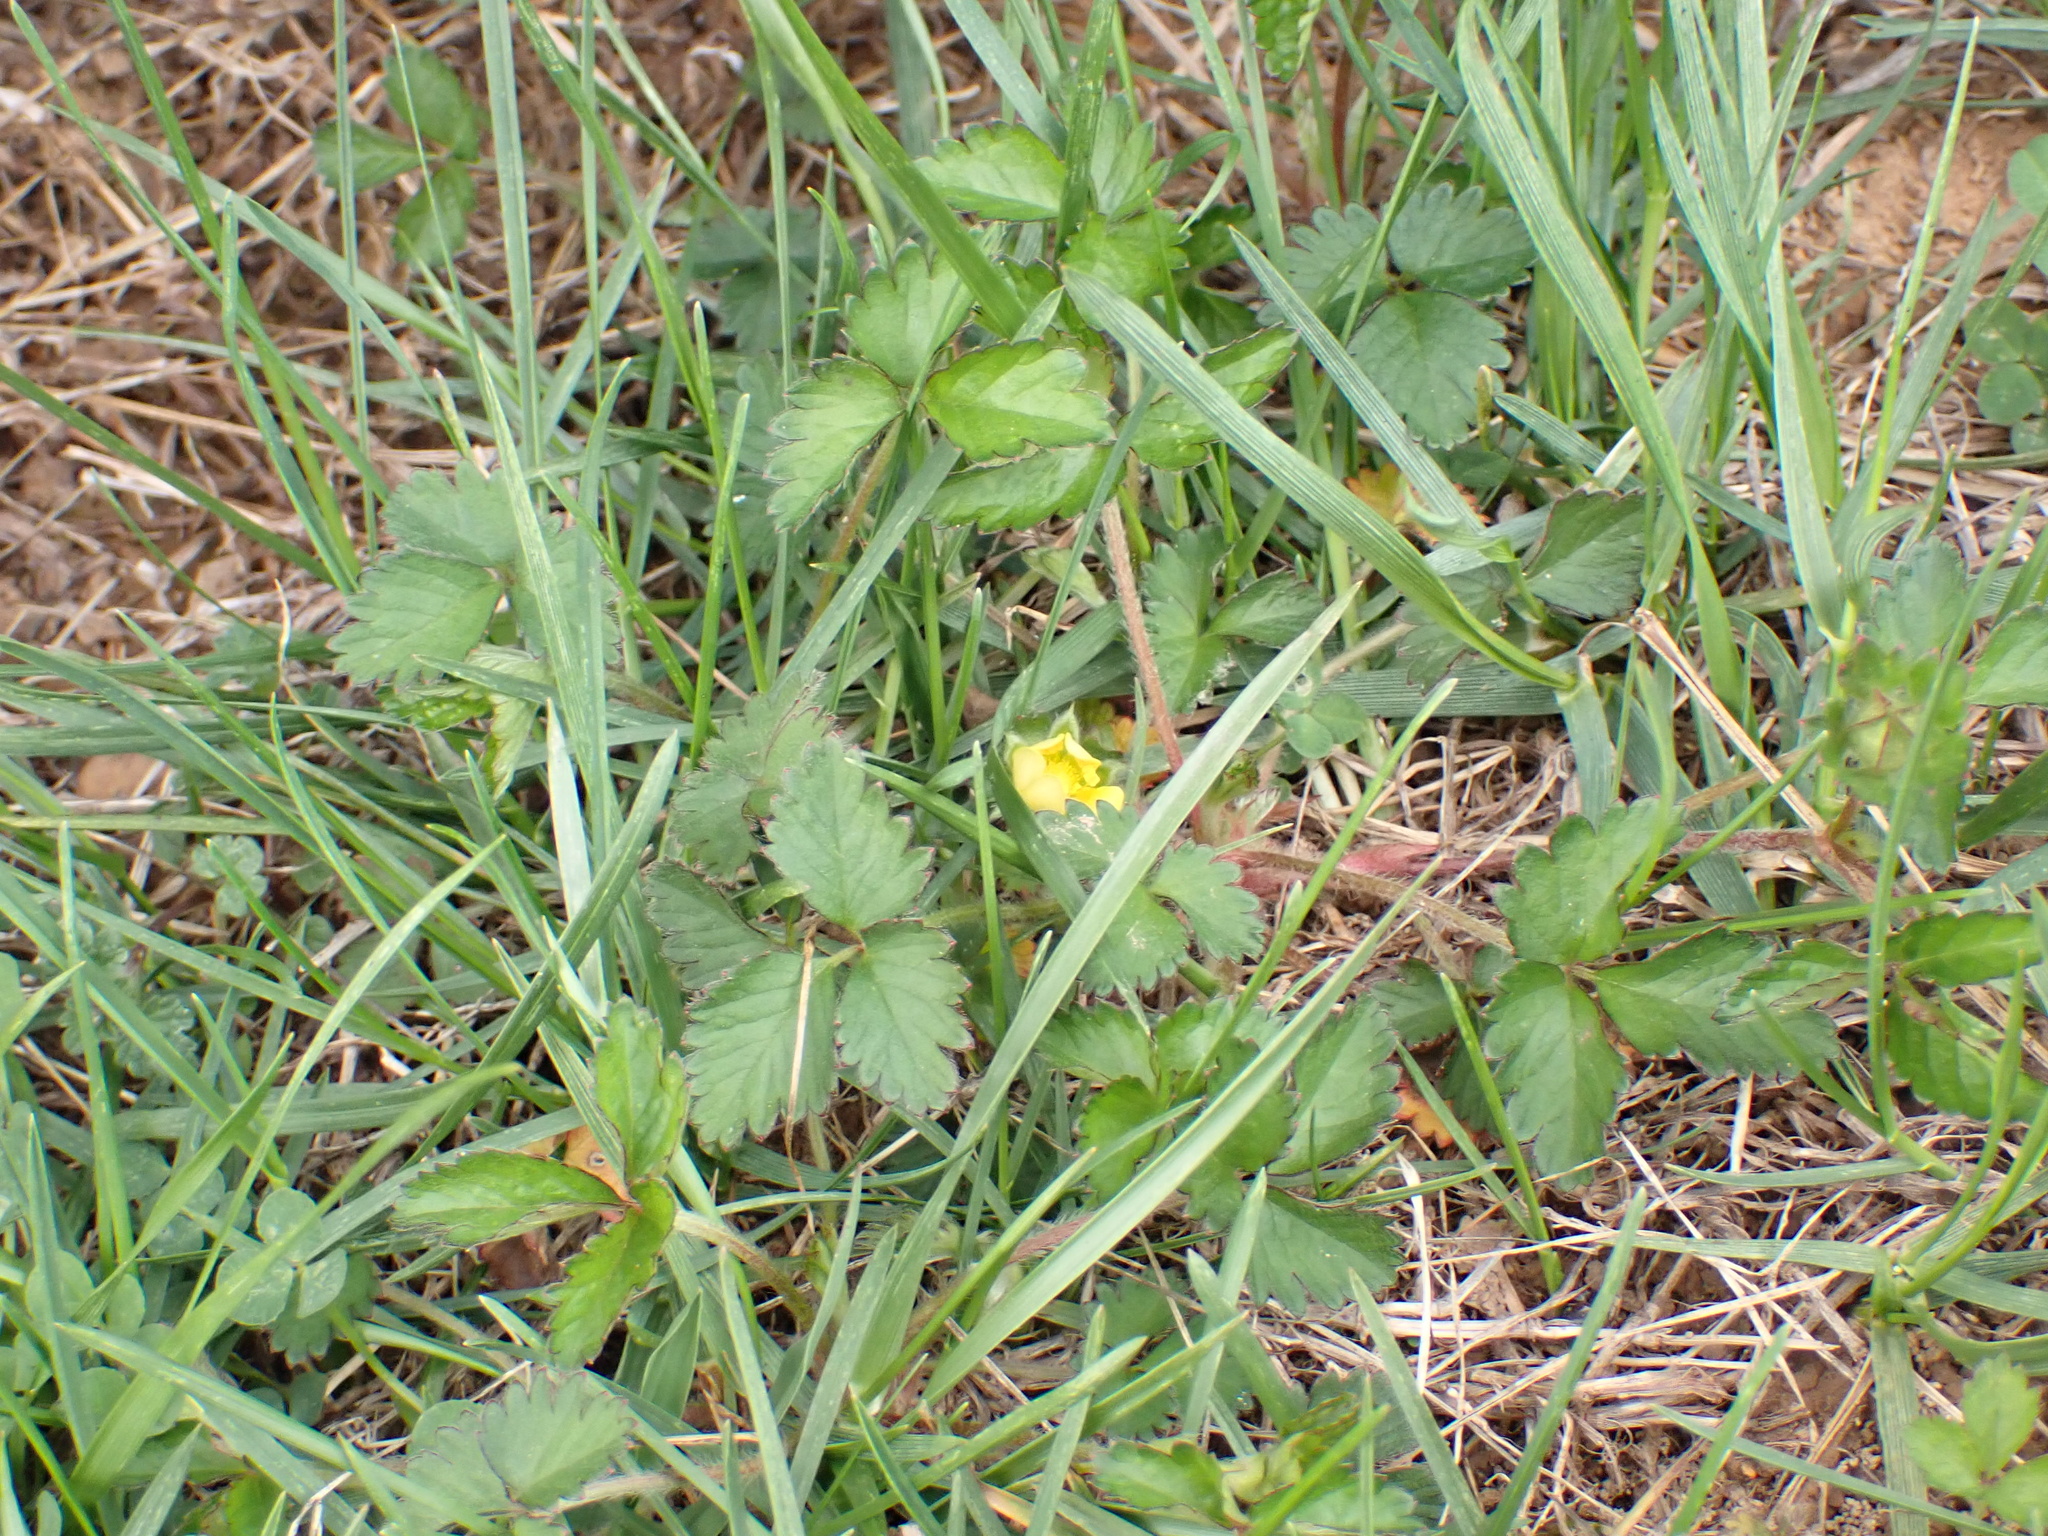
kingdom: Plantae
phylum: Tracheophyta
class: Magnoliopsida
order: Rosales
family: Rosaceae
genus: Potentilla
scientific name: Potentilla indica
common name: Yellow-flowered strawberry
